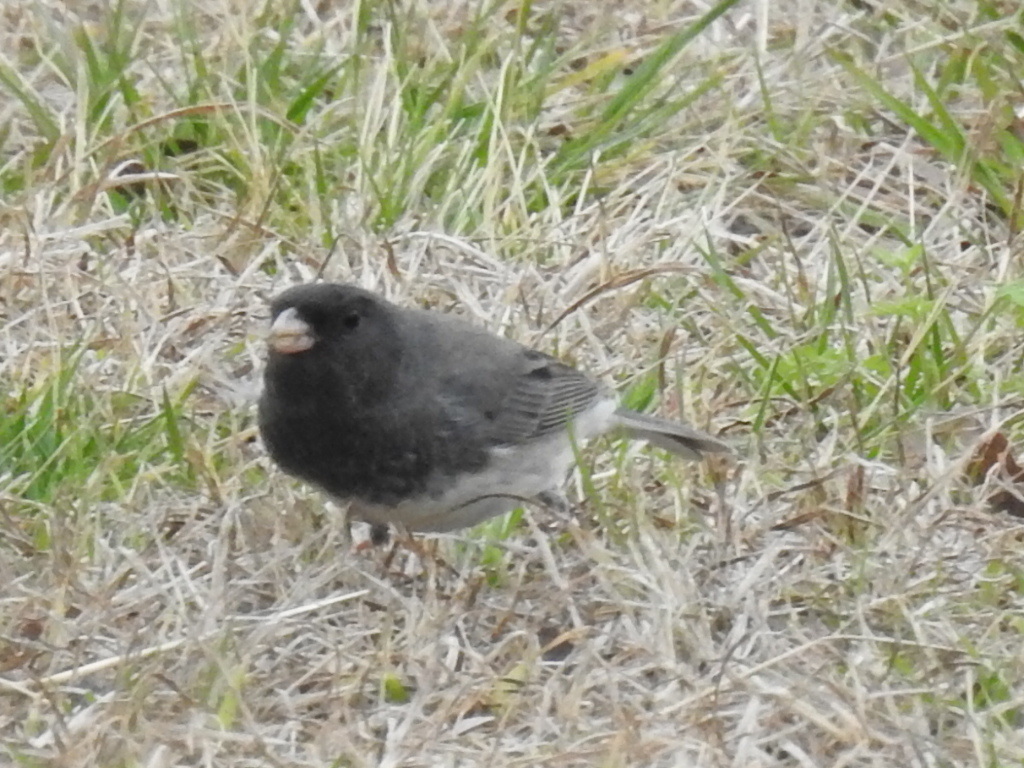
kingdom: Animalia
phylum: Chordata
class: Aves
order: Passeriformes
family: Passerellidae
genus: Junco
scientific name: Junco hyemalis
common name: Dark-eyed junco
